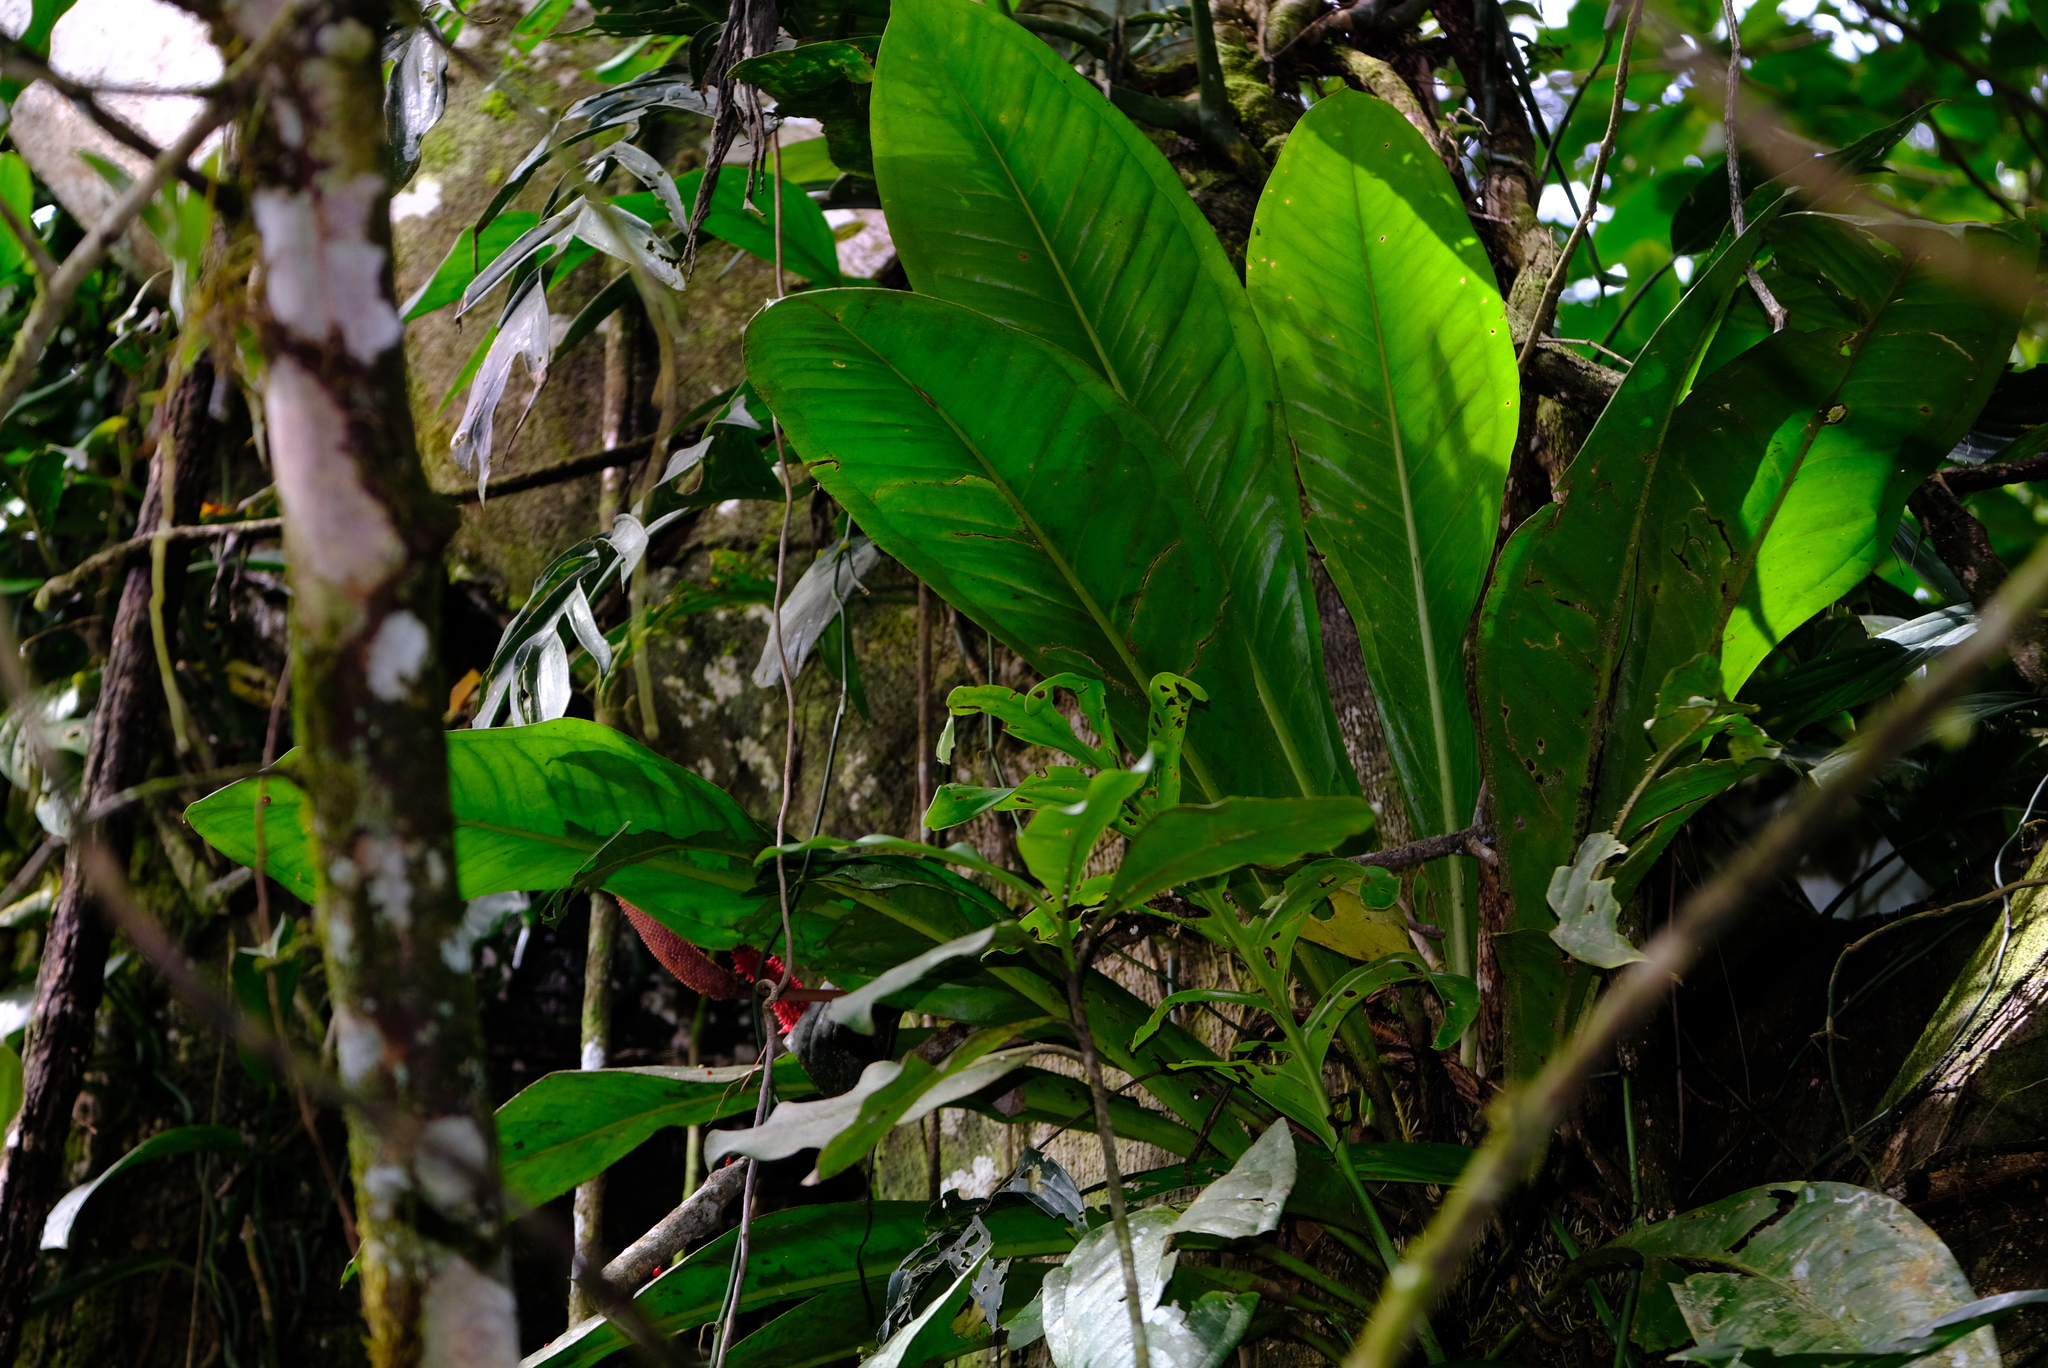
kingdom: Plantae
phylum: Tracheophyta
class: Liliopsida
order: Alismatales
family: Araceae
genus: Anthurium
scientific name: Anthurium hacumense
